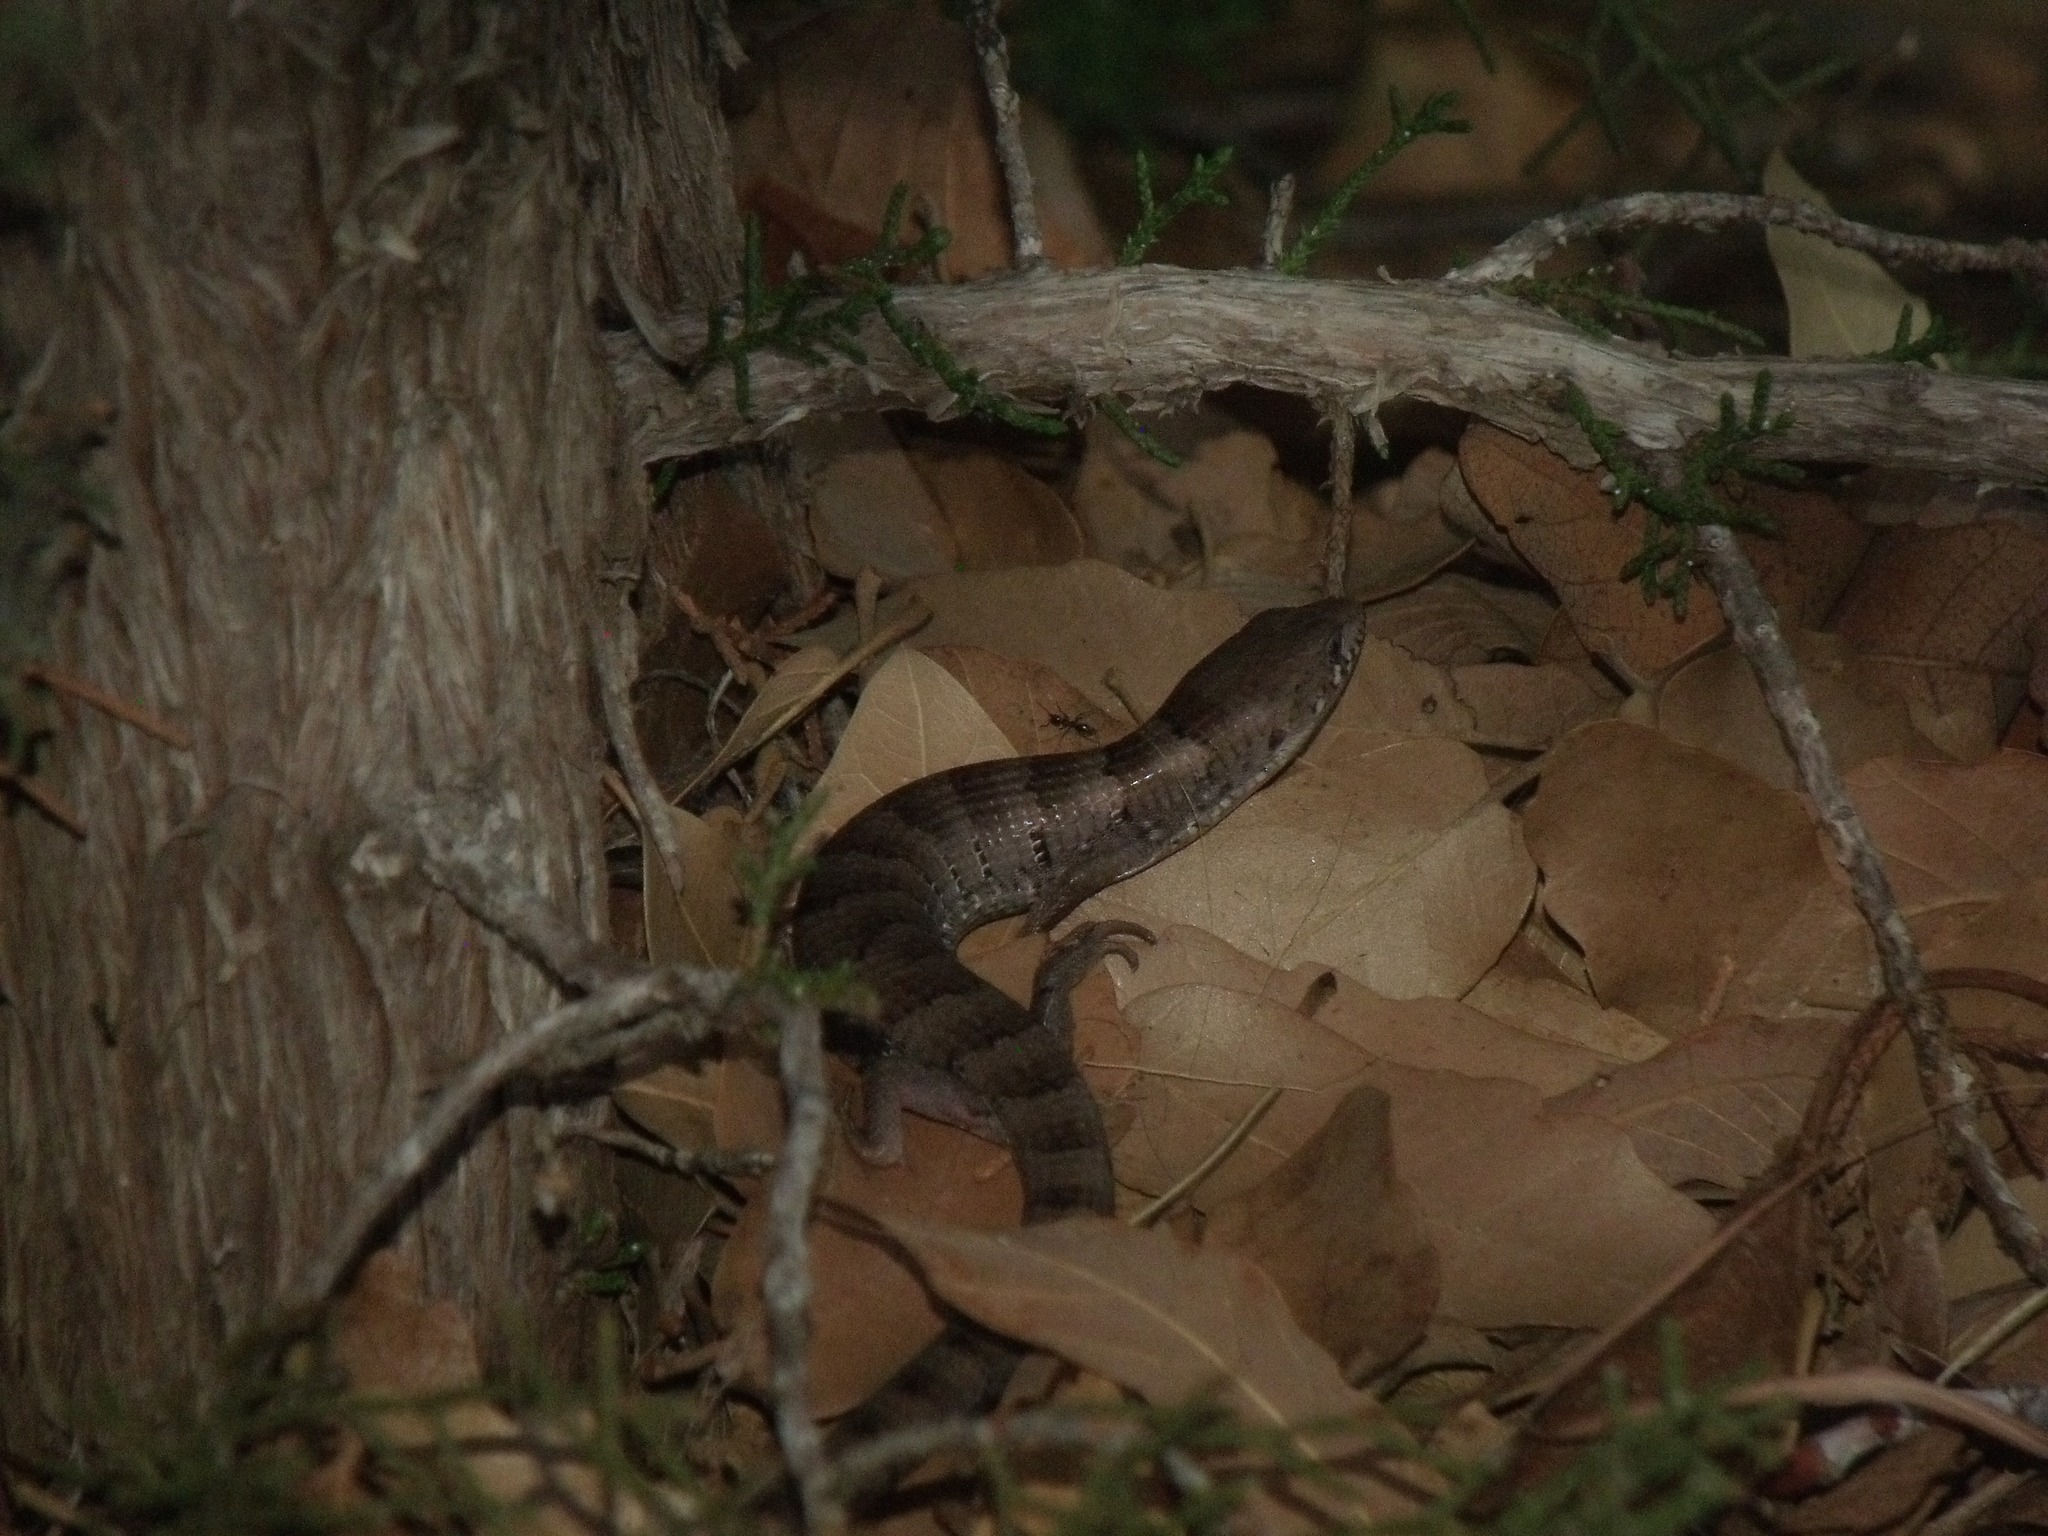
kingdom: Animalia
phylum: Chordata
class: Squamata
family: Anguidae
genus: Elgaria
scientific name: Elgaria kingii
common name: Madrean alligator lizard
